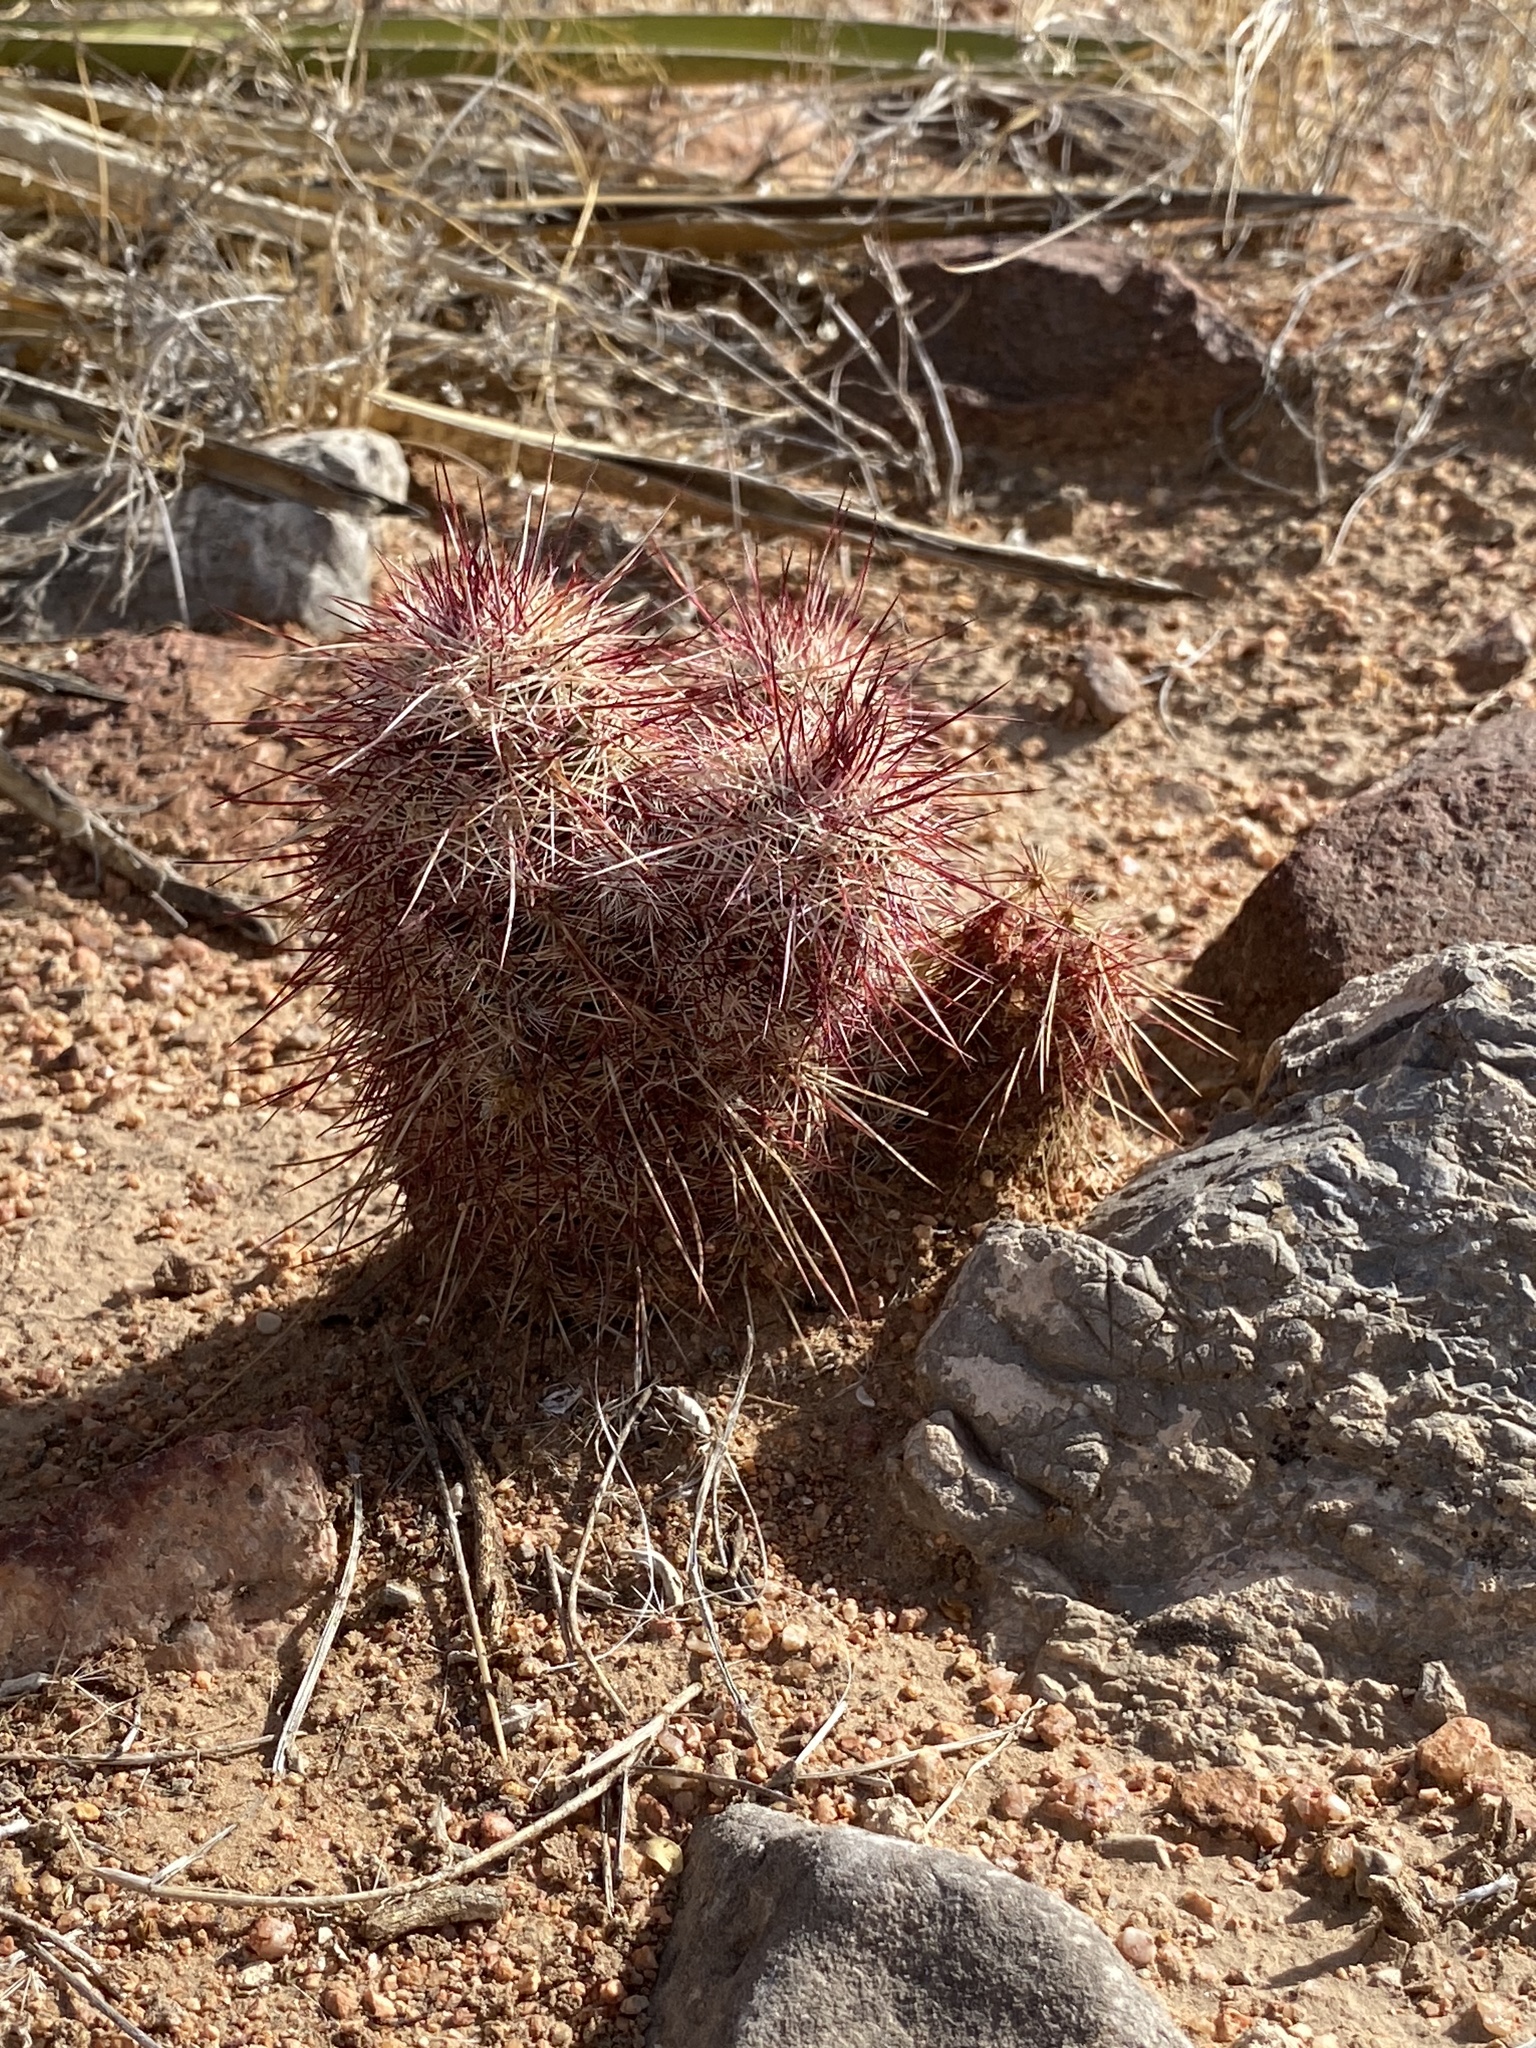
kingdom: Plantae
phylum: Tracheophyta
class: Magnoliopsida
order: Caryophyllales
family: Cactaceae
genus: Echinocereus
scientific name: Echinocereus viridiflorus
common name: Nylon hedgehog cactus
